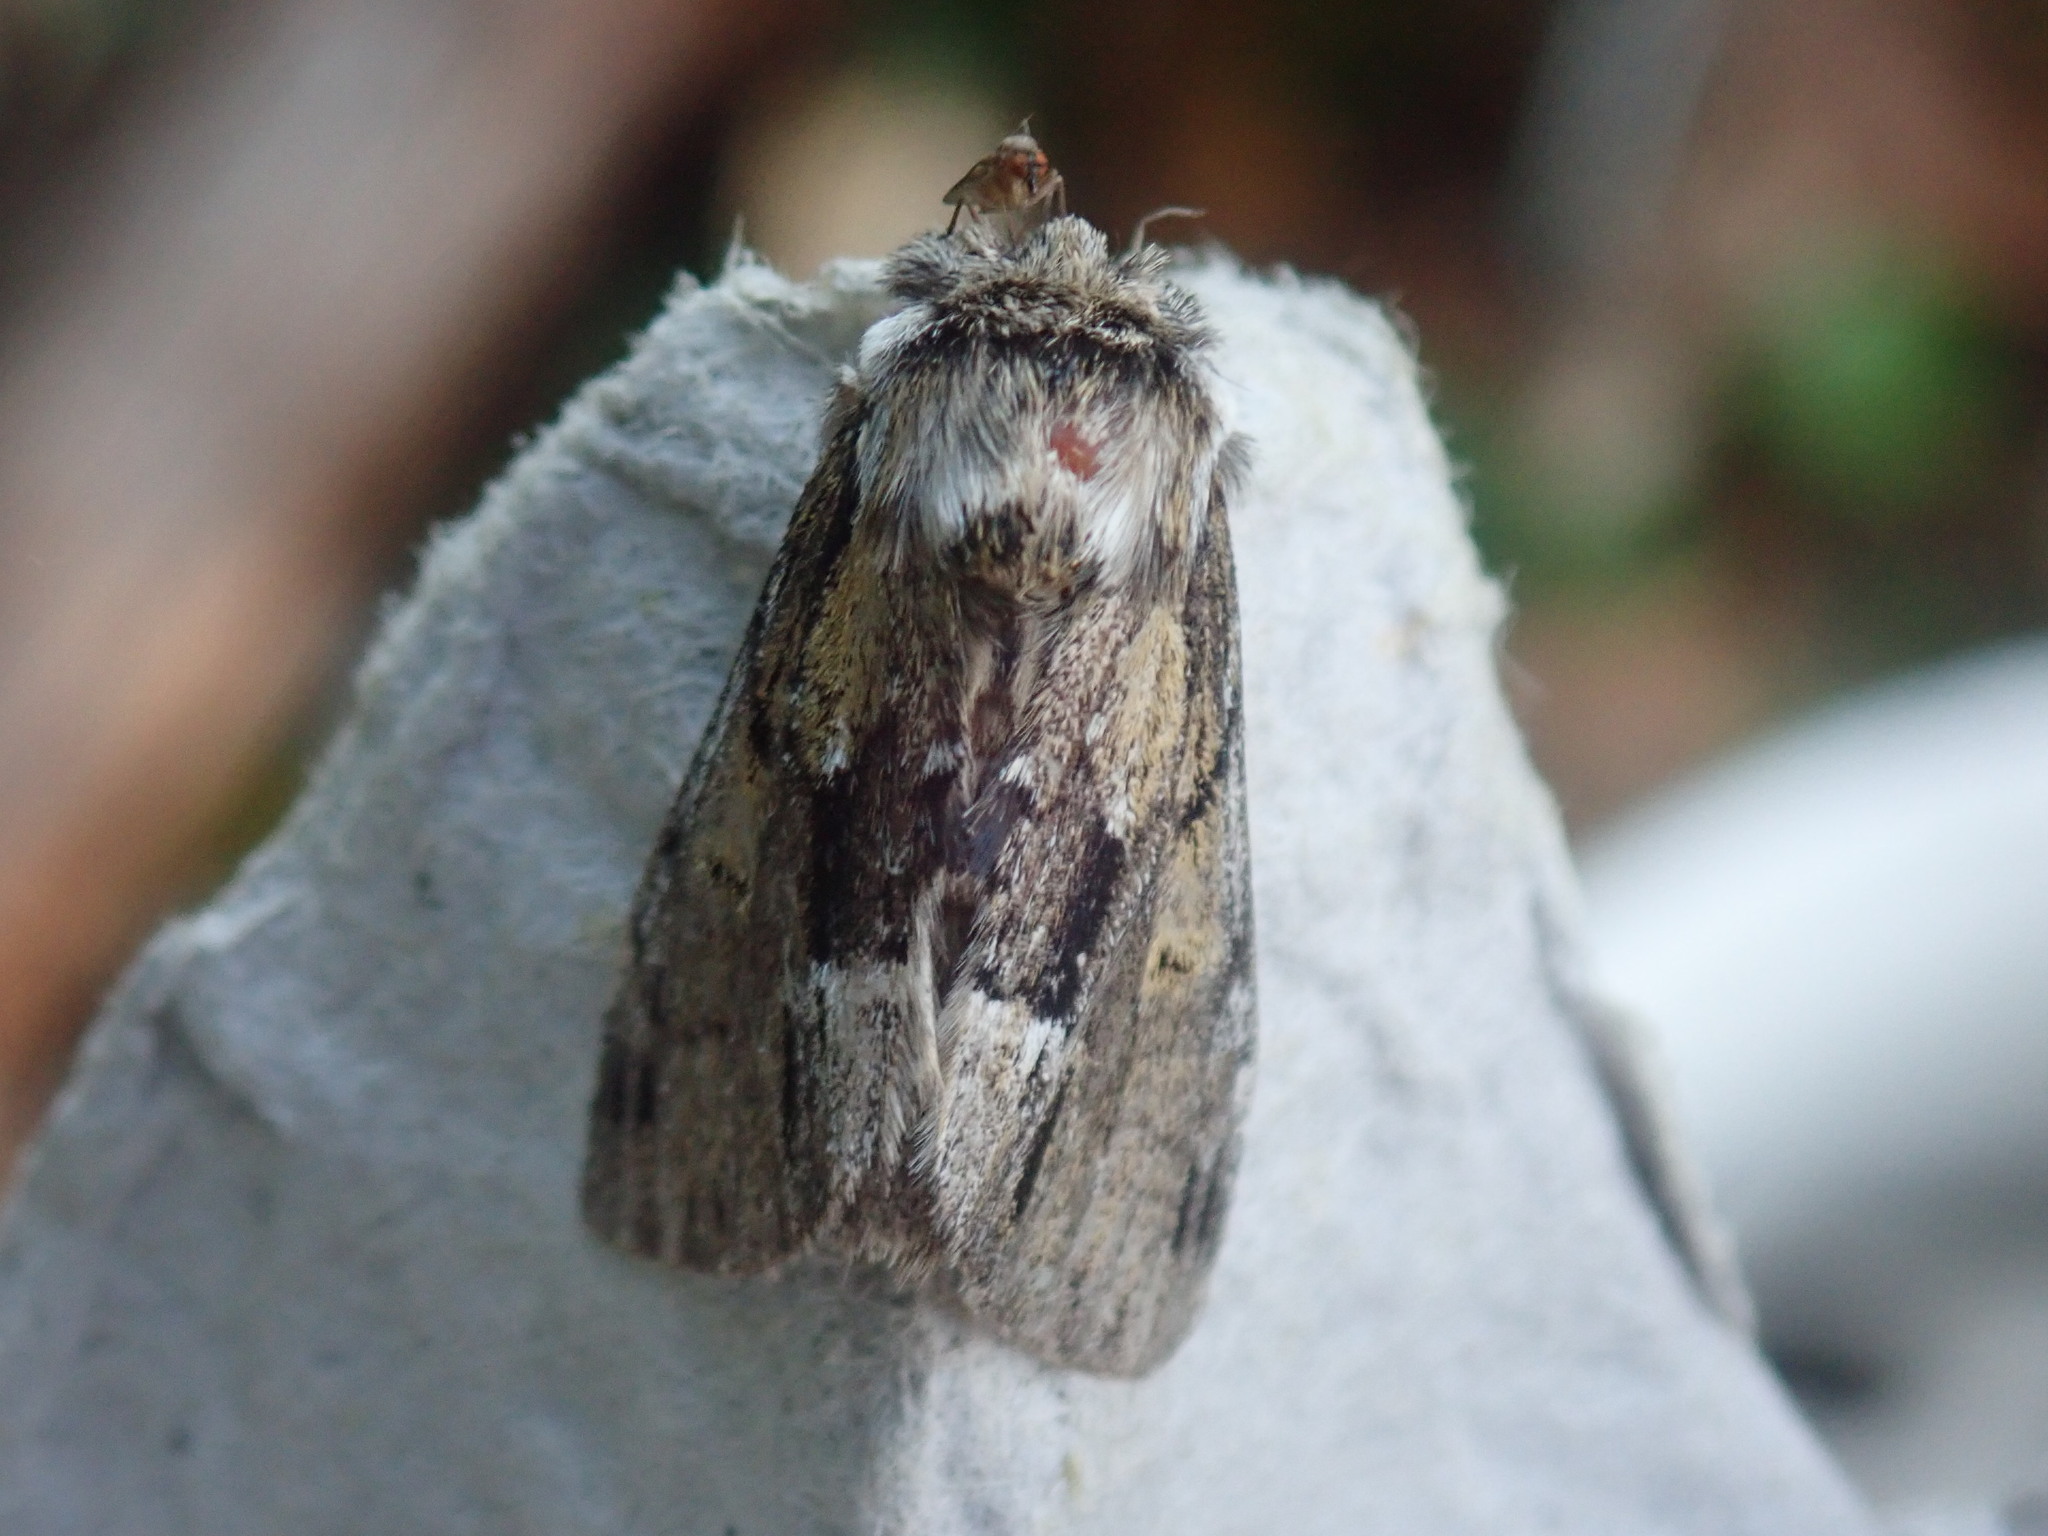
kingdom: Animalia
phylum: Arthropoda
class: Insecta
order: Lepidoptera
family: Notodontidae
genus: Paraeschra
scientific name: Paraeschra georgica
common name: Georgian prominent
